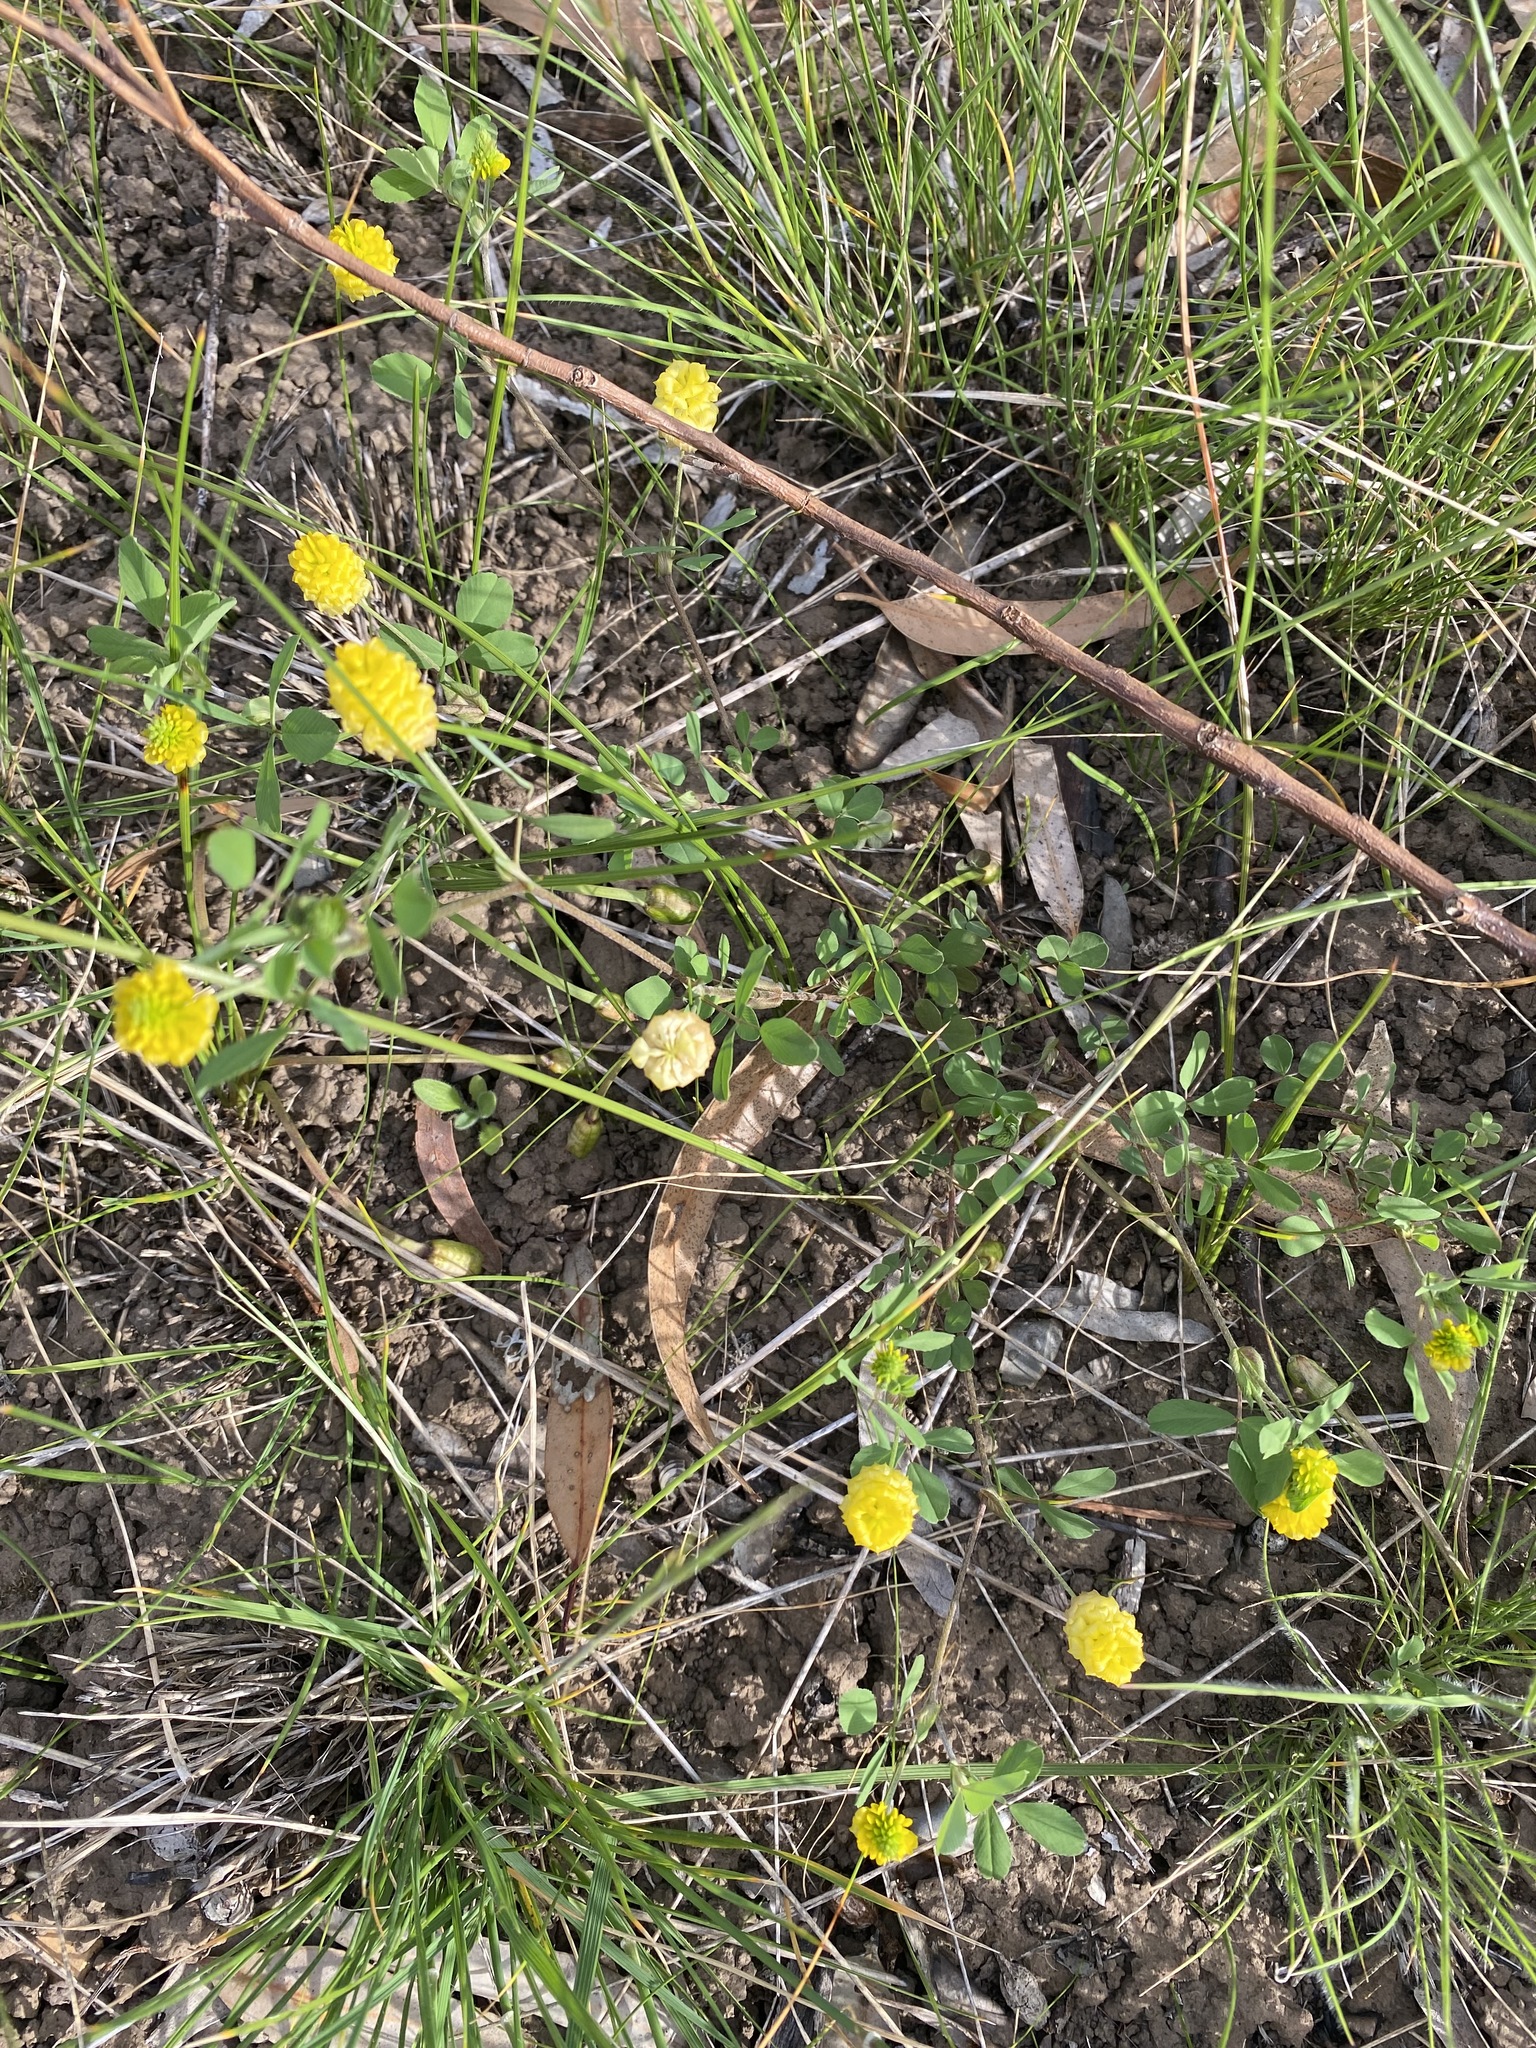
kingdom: Plantae
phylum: Tracheophyta
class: Magnoliopsida
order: Fabales
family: Fabaceae
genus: Trifolium
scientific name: Trifolium campestre
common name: Field clover
